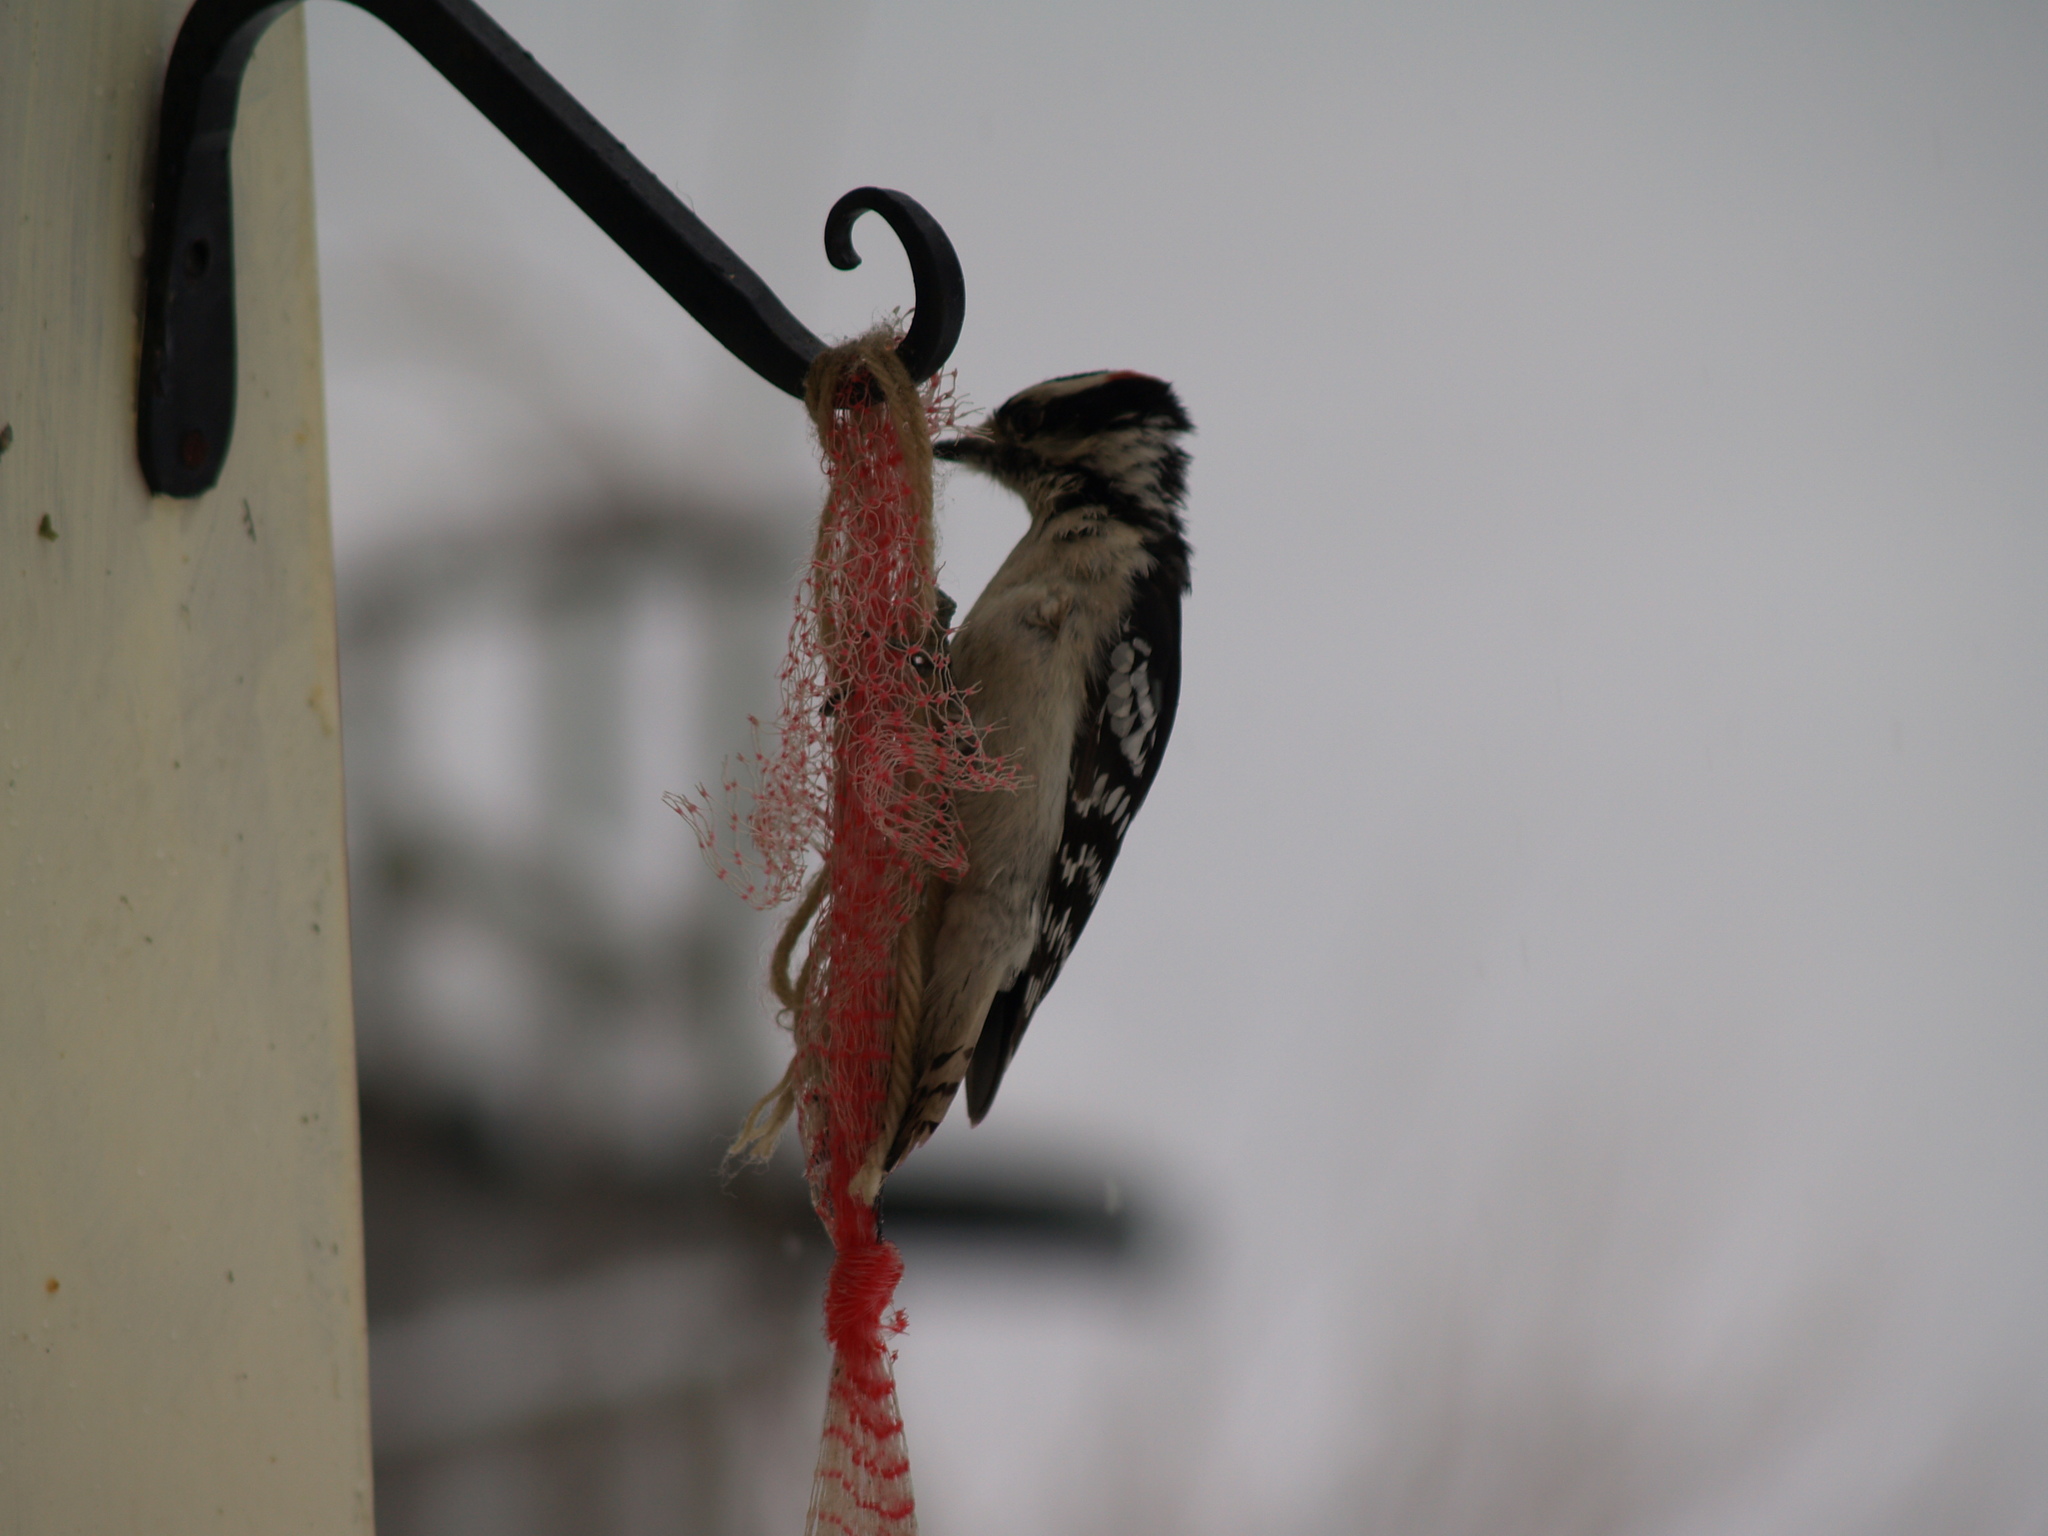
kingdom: Animalia
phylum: Chordata
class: Aves
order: Piciformes
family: Picidae
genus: Dryobates
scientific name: Dryobates pubescens
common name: Downy woodpecker
